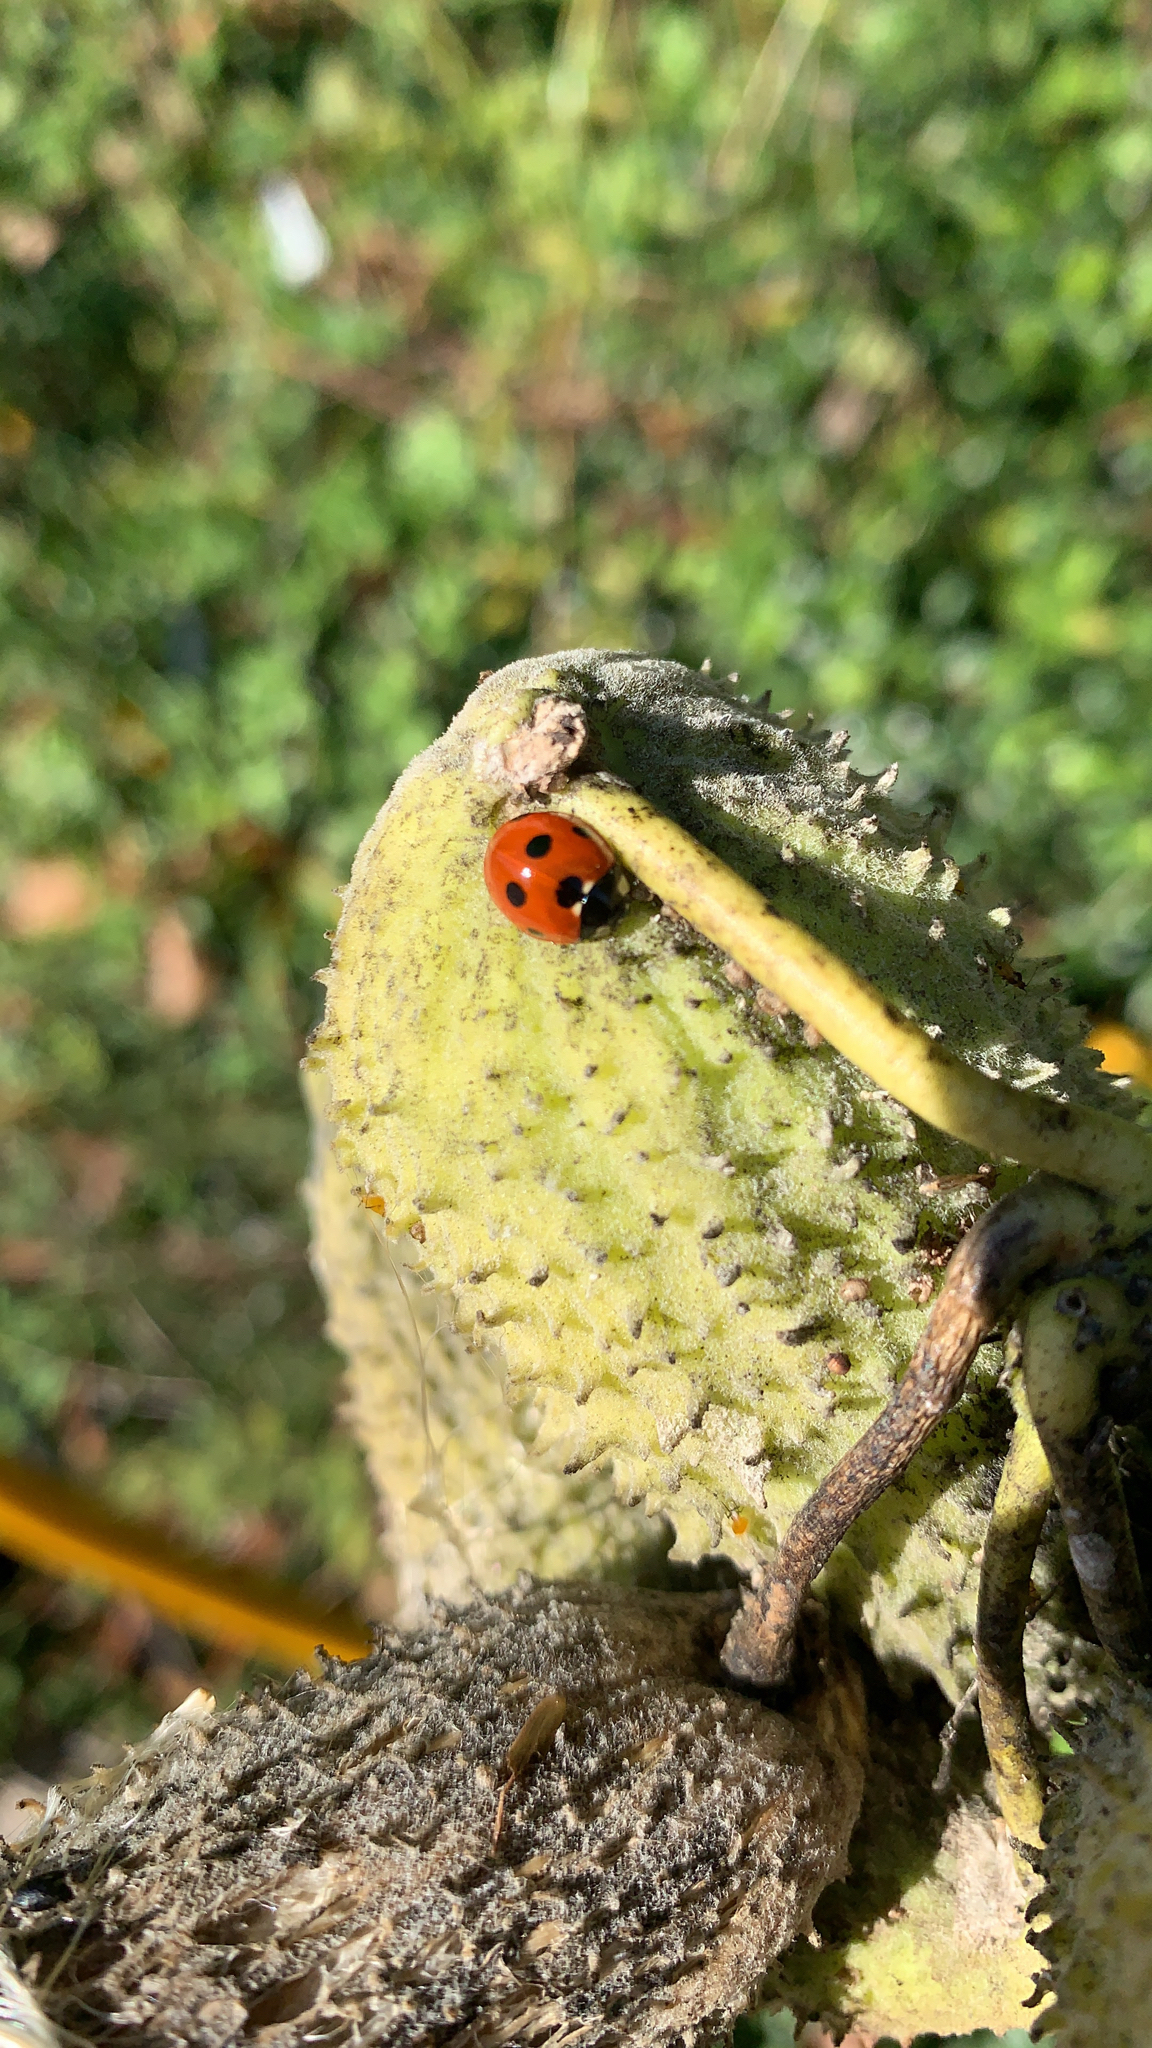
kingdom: Animalia
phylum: Arthropoda
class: Insecta
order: Coleoptera
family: Coccinellidae
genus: Coccinella
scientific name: Coccinella septempunctata
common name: Sevenspotted lady beetle
